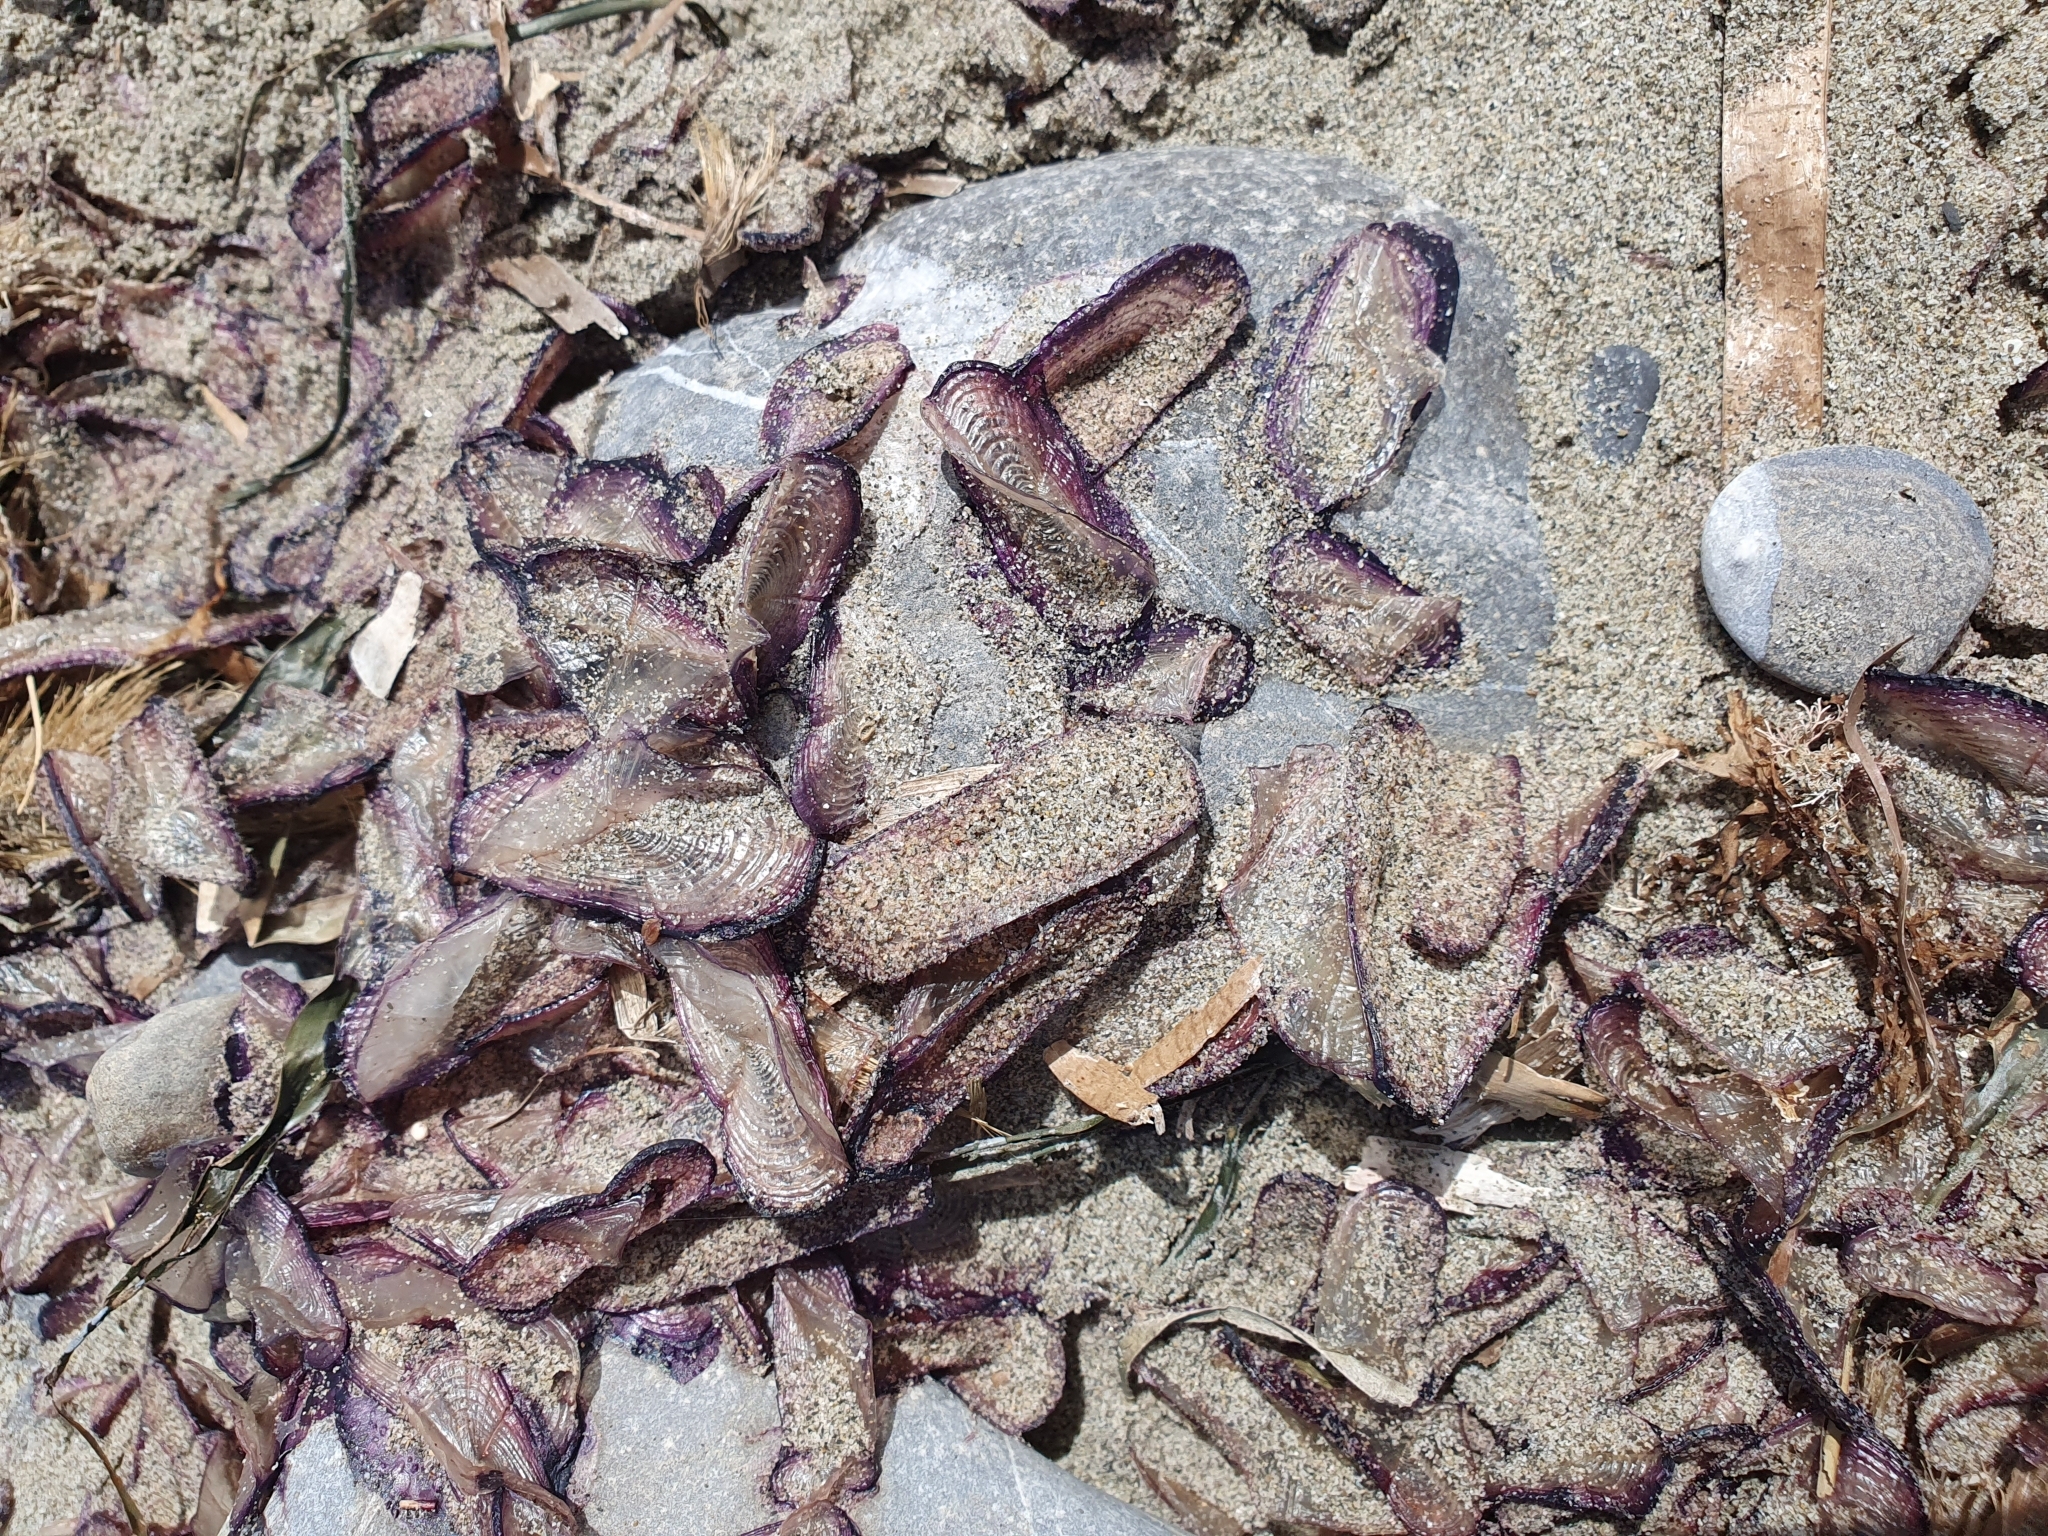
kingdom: Animalia
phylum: Cnidaria
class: Hydrozoa
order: Anthoathecata
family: Porpitidae
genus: Velella
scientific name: Velella velella
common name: By-the-wind-sailor
